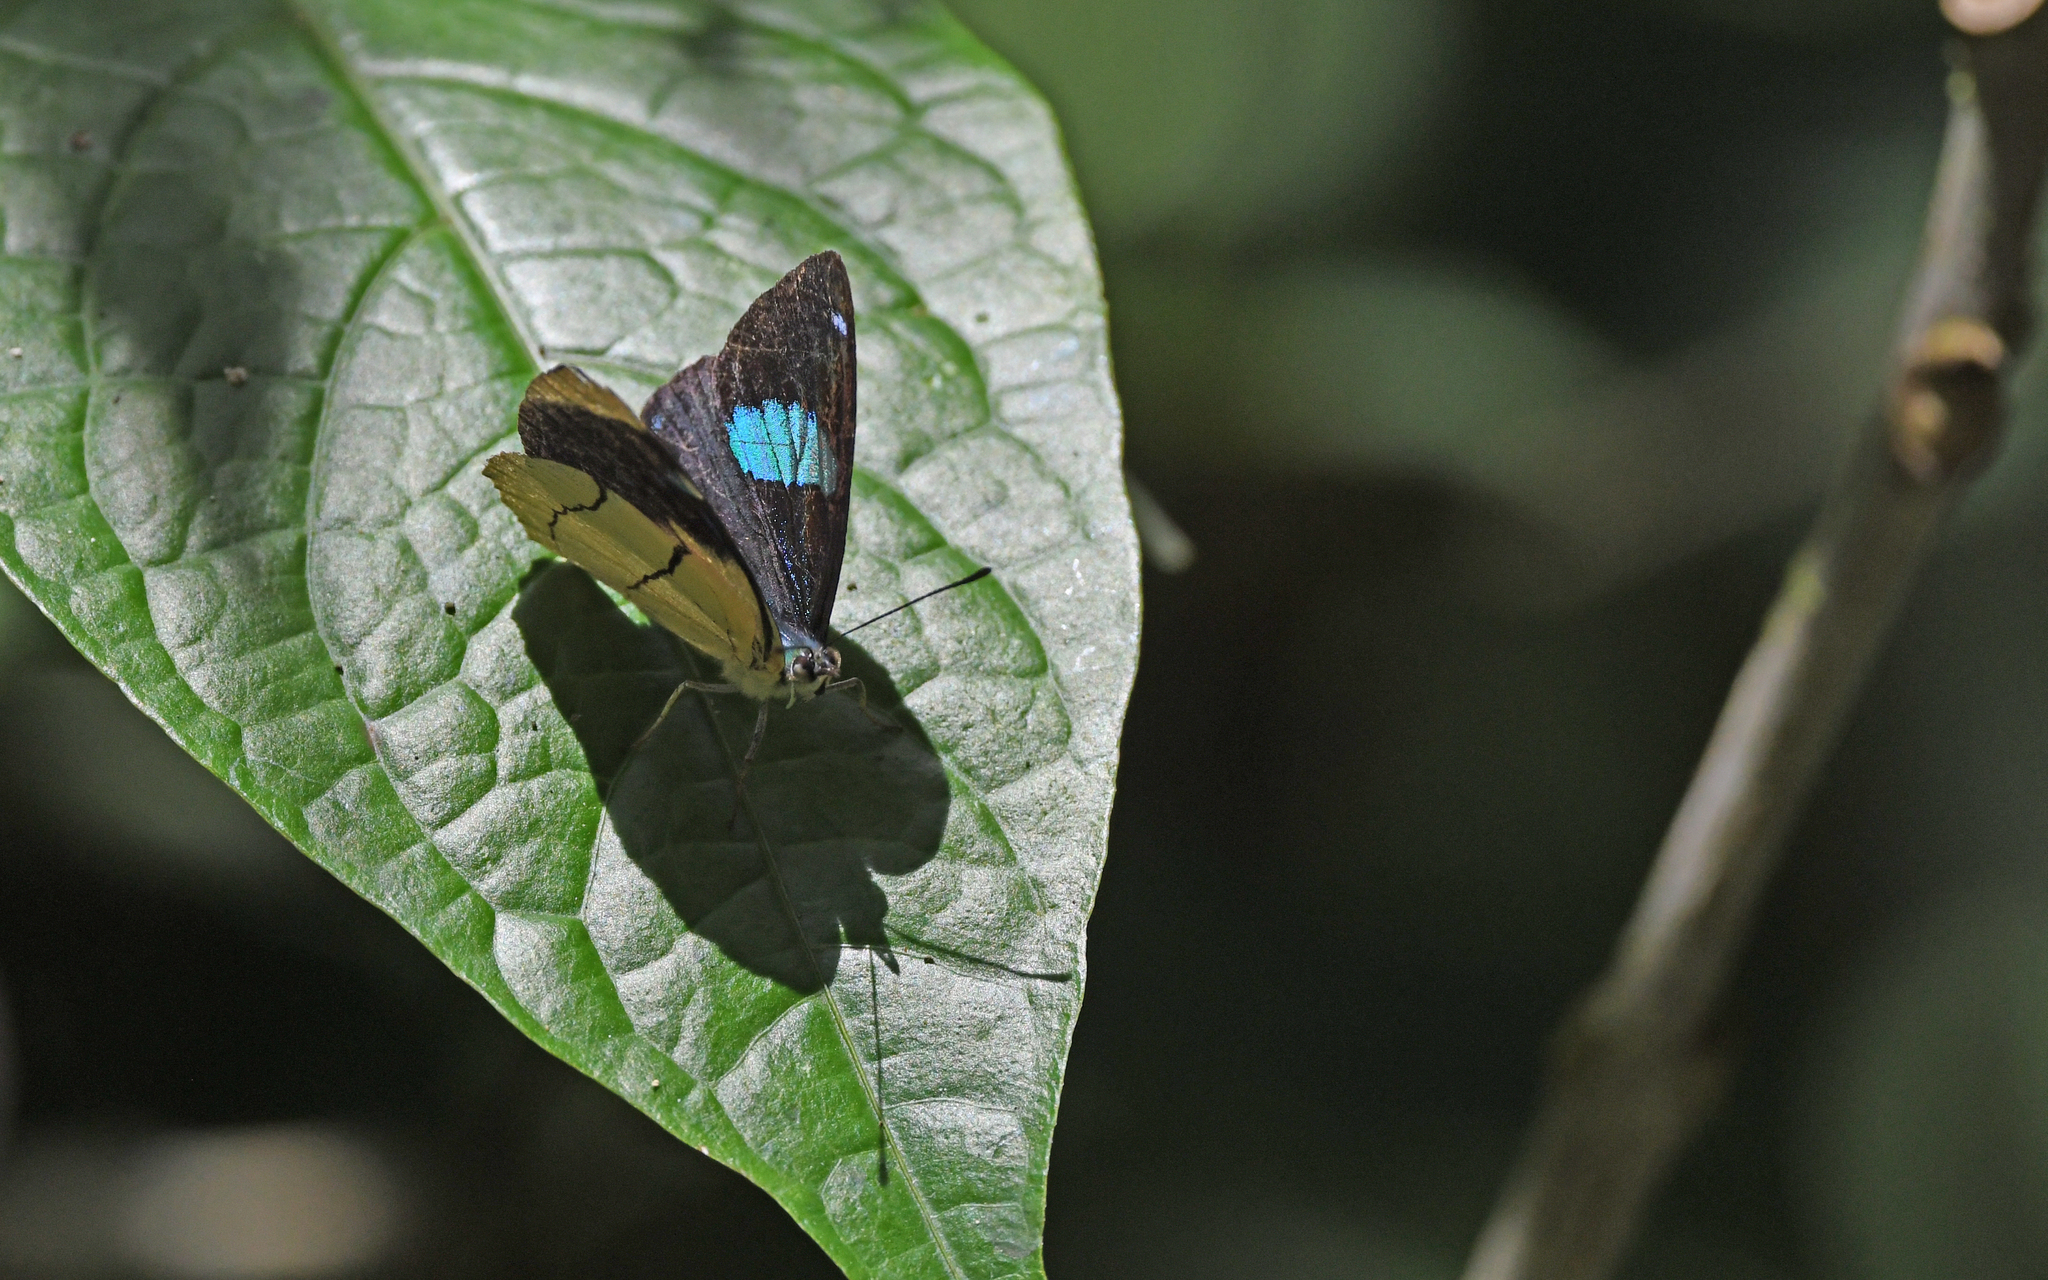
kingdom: Animalia
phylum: Arthropoda
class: Insecta
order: Lepidoptera
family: Nymphalidae
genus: Perisama
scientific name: Perisama oppelii
